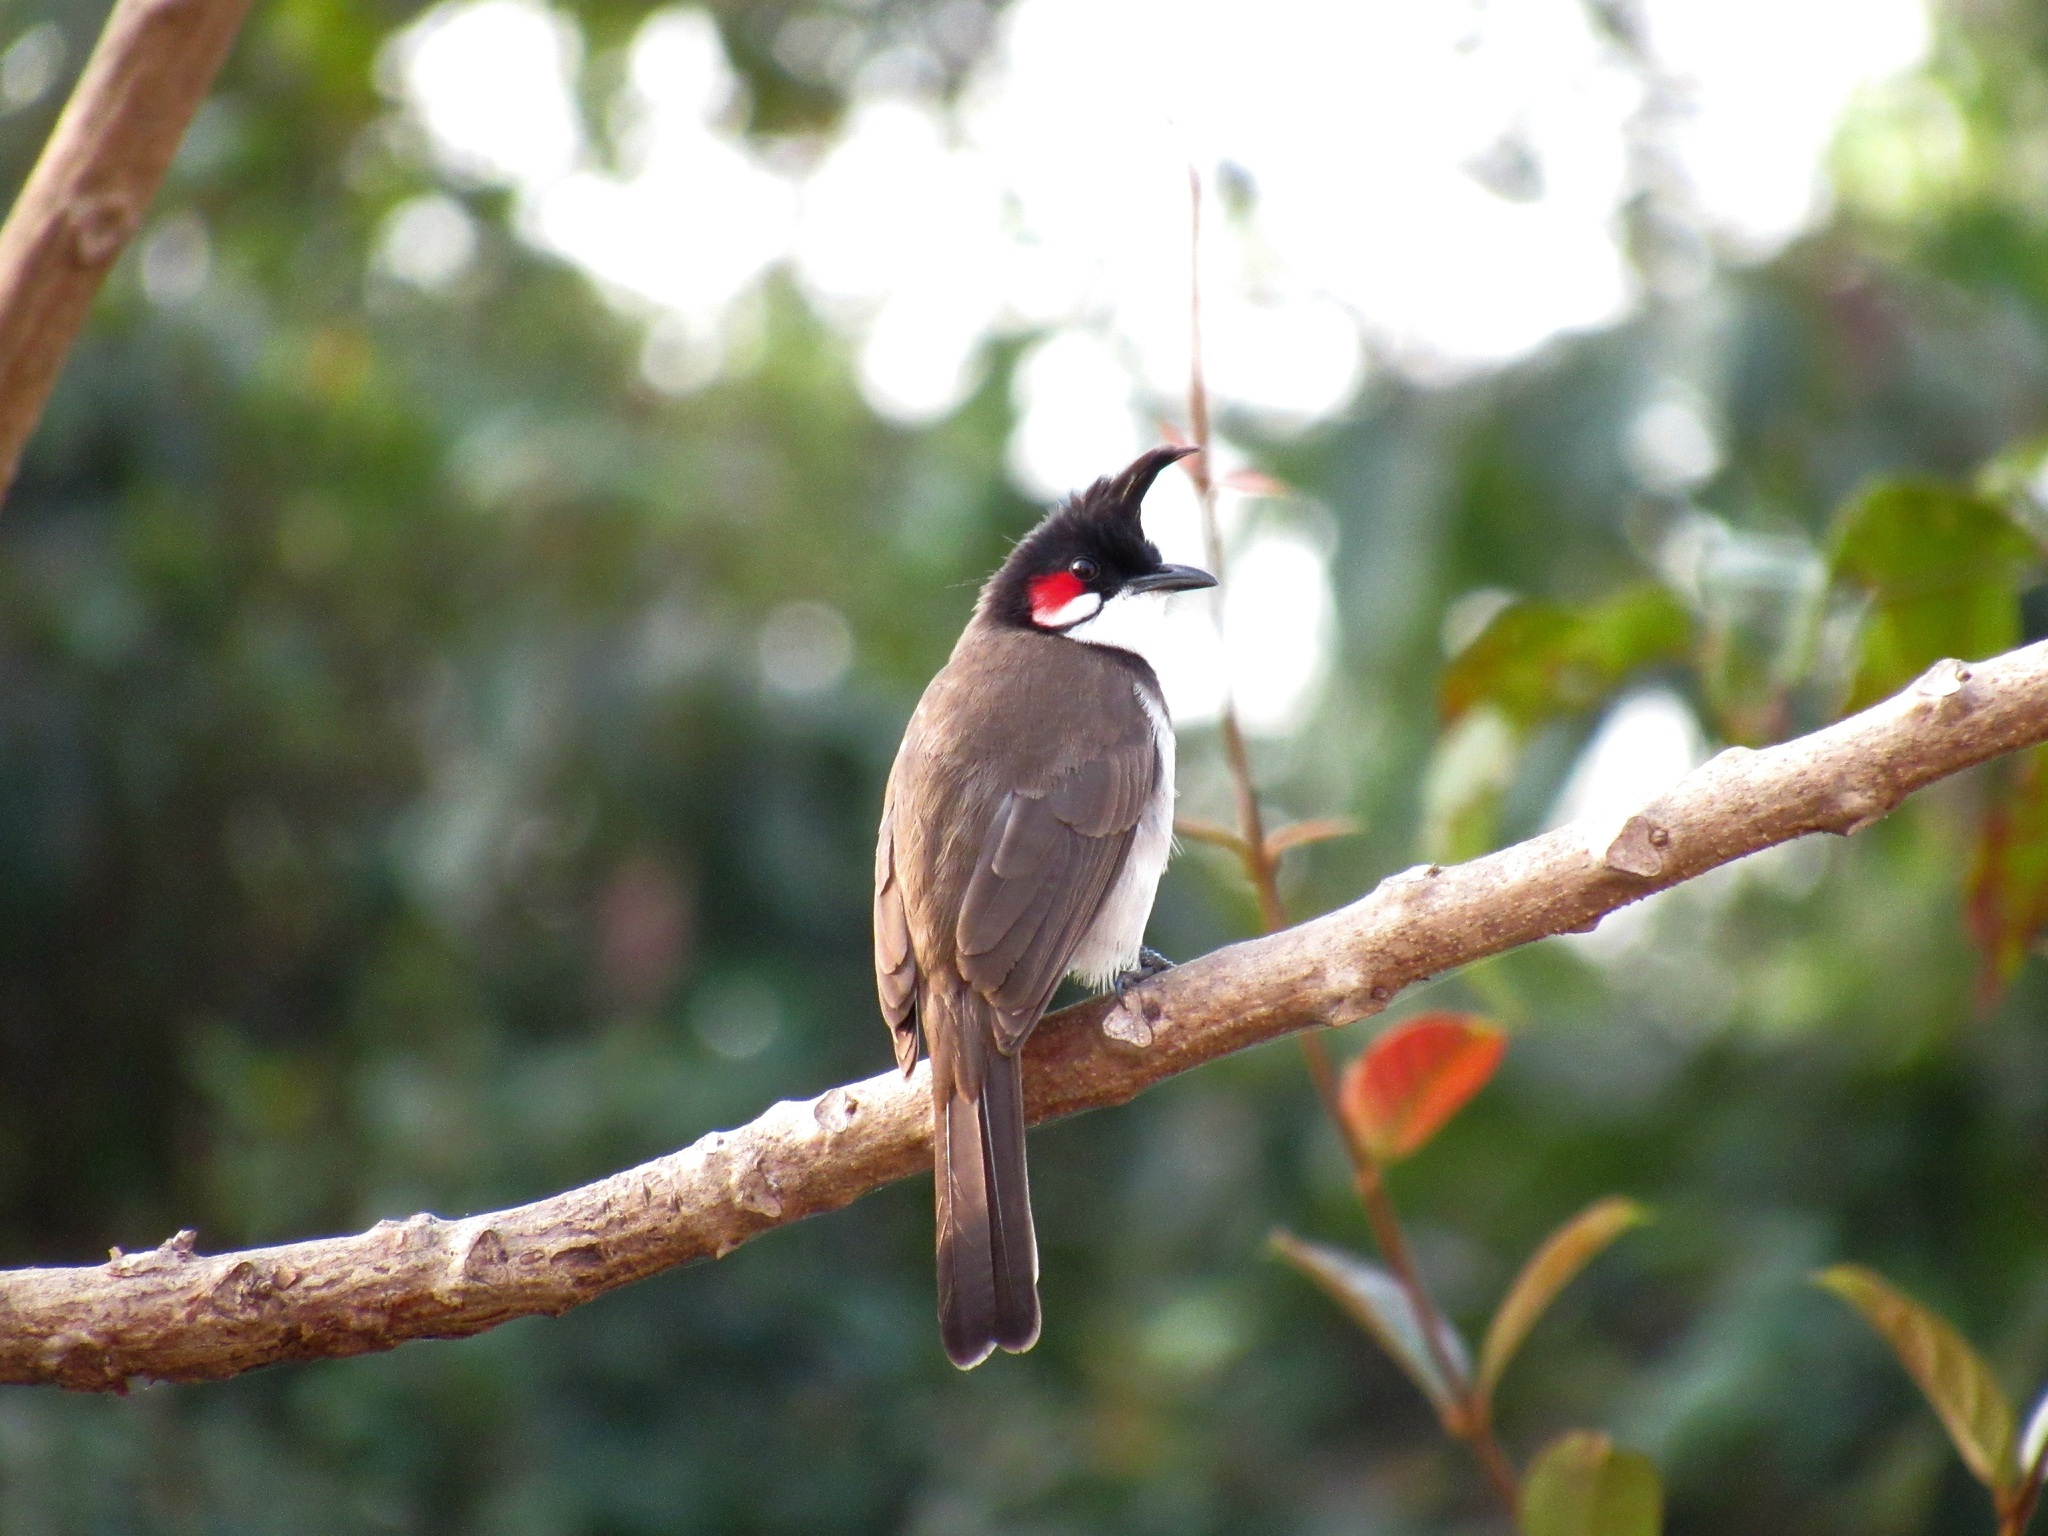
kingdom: Animalia
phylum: Chordata
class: Aves
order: Passeriformes
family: Pycnonotidae
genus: Pycnonotus
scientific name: Pycnonotus jocosus
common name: Red-whiskered bulbul
